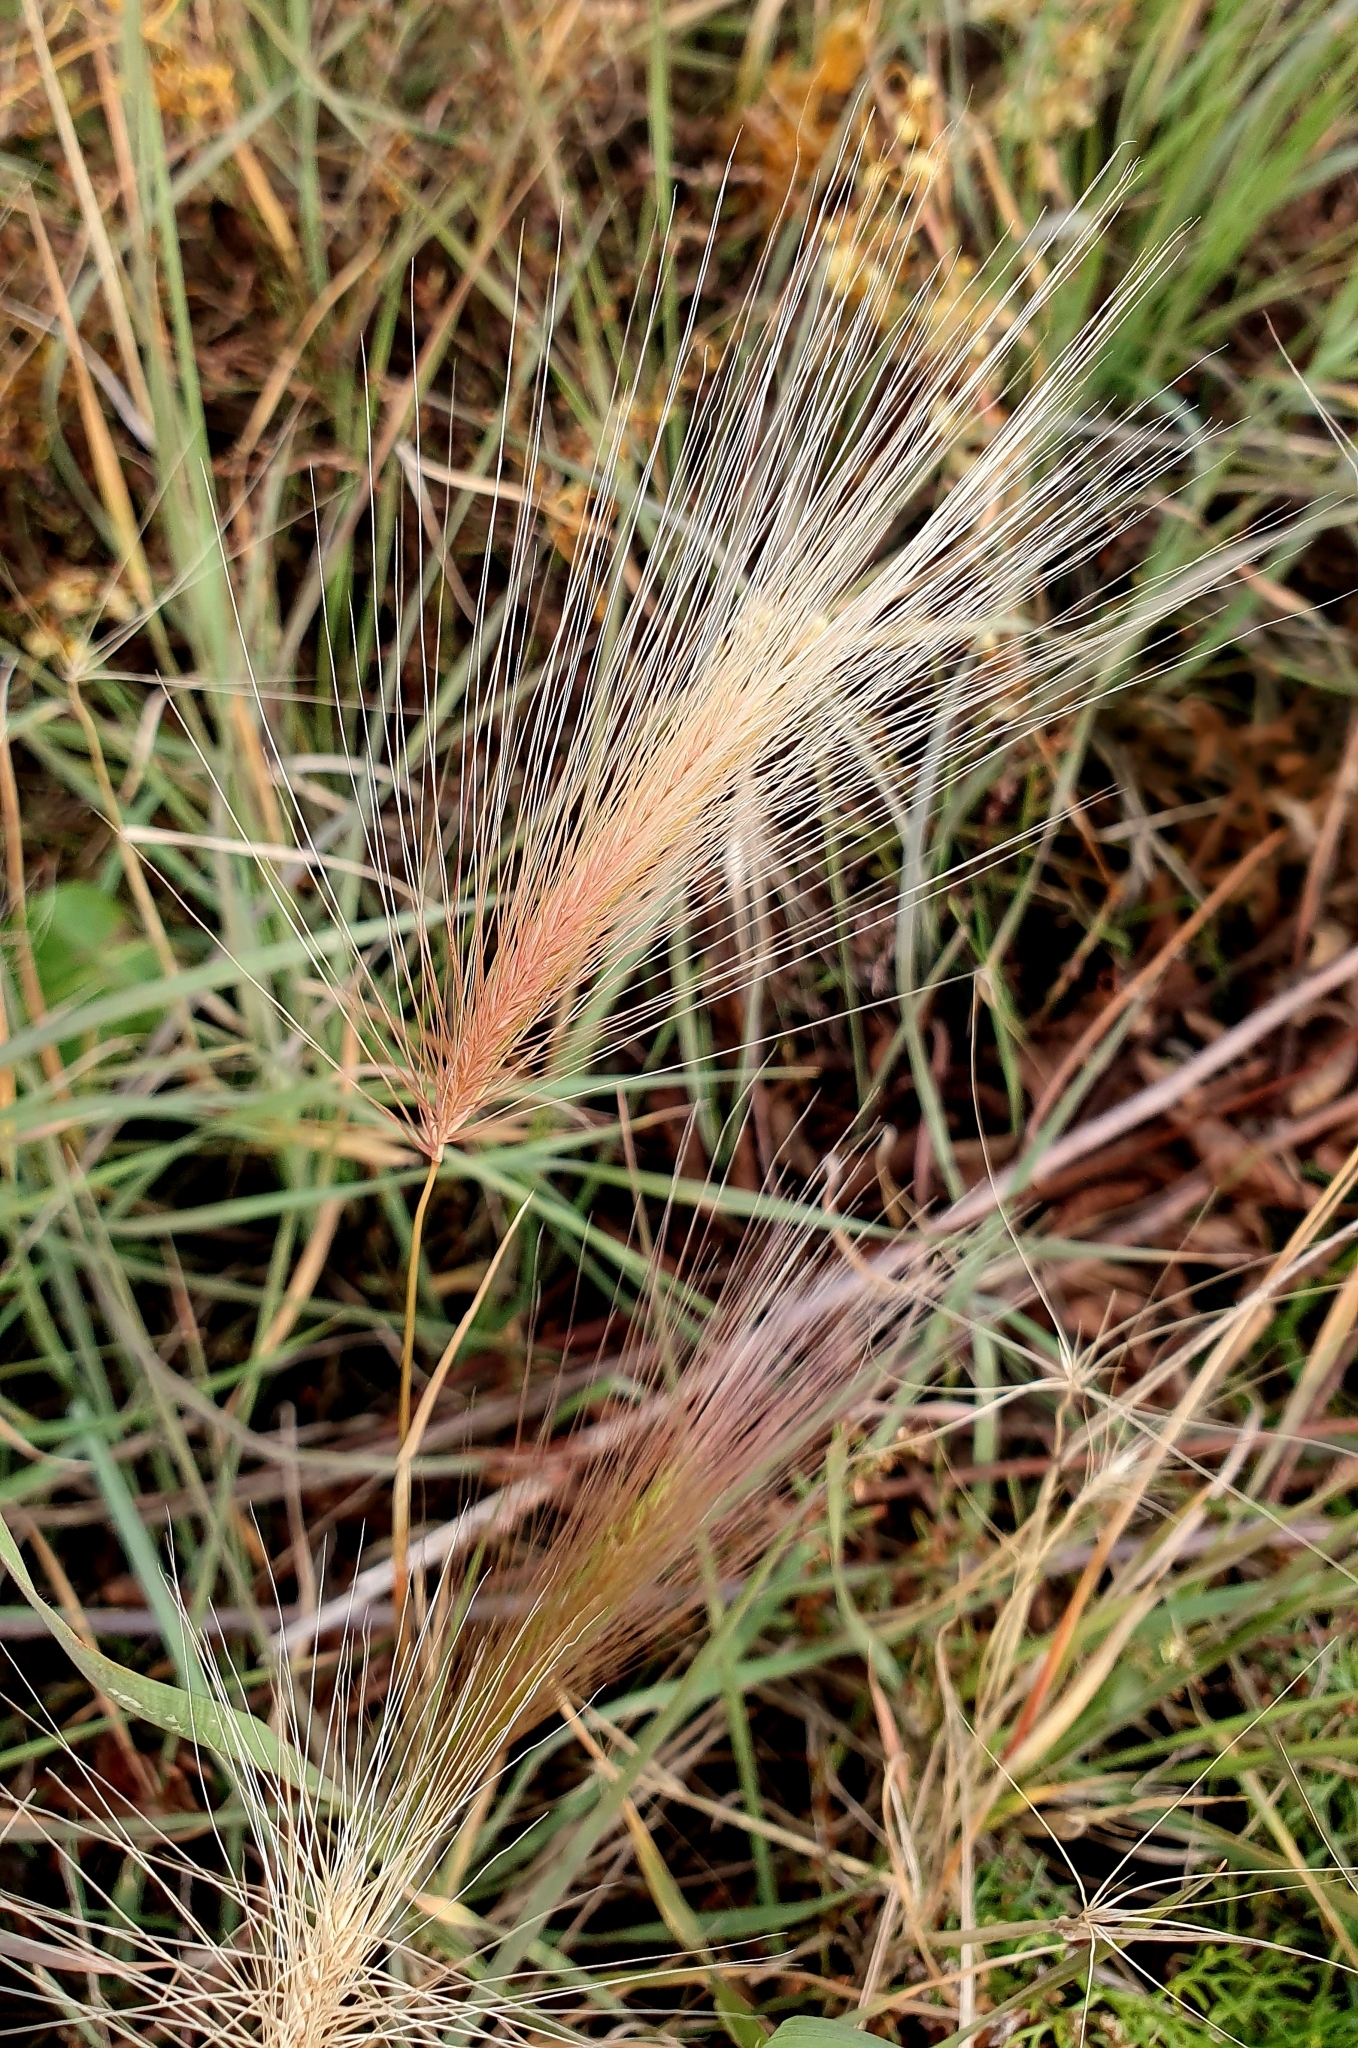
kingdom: Plantae
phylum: Tracheophyta
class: Liliopsida
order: Poales
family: Poaceae
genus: Hordeum
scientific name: Hordeum jubatum
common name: Foxtail barley
